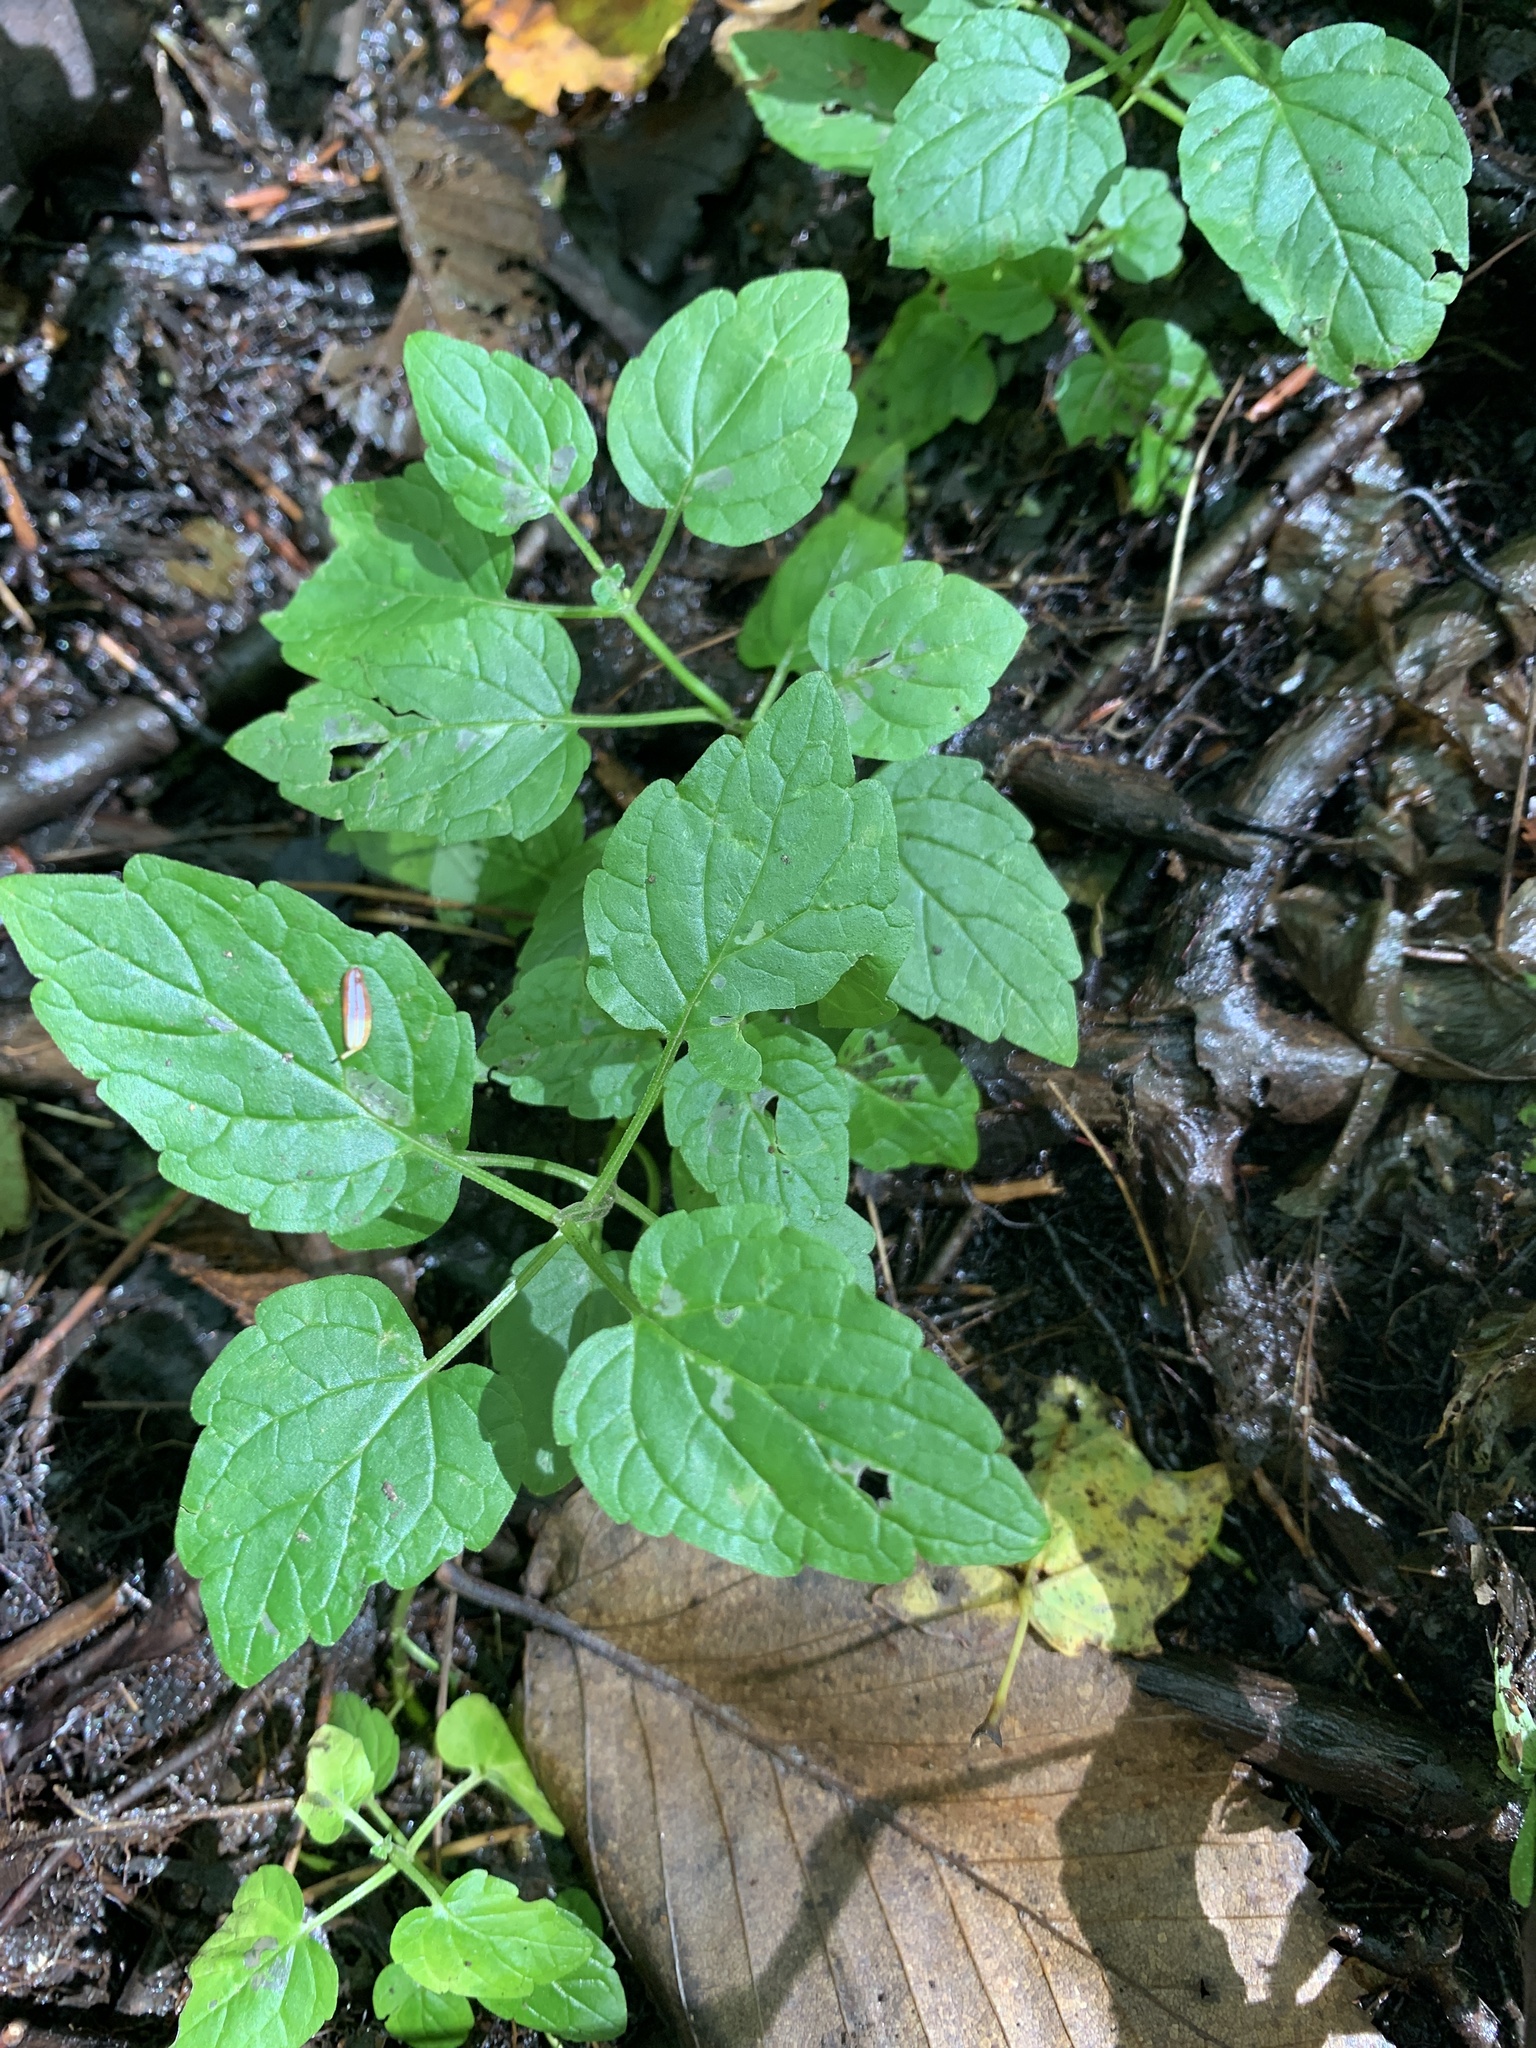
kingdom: Plantae
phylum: Tracheophyta
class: Magnoliopsida
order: Lamiales
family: Lamiaceae
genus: Scutellaria
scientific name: Scutellaria lateriflora
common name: Blue skullcap
